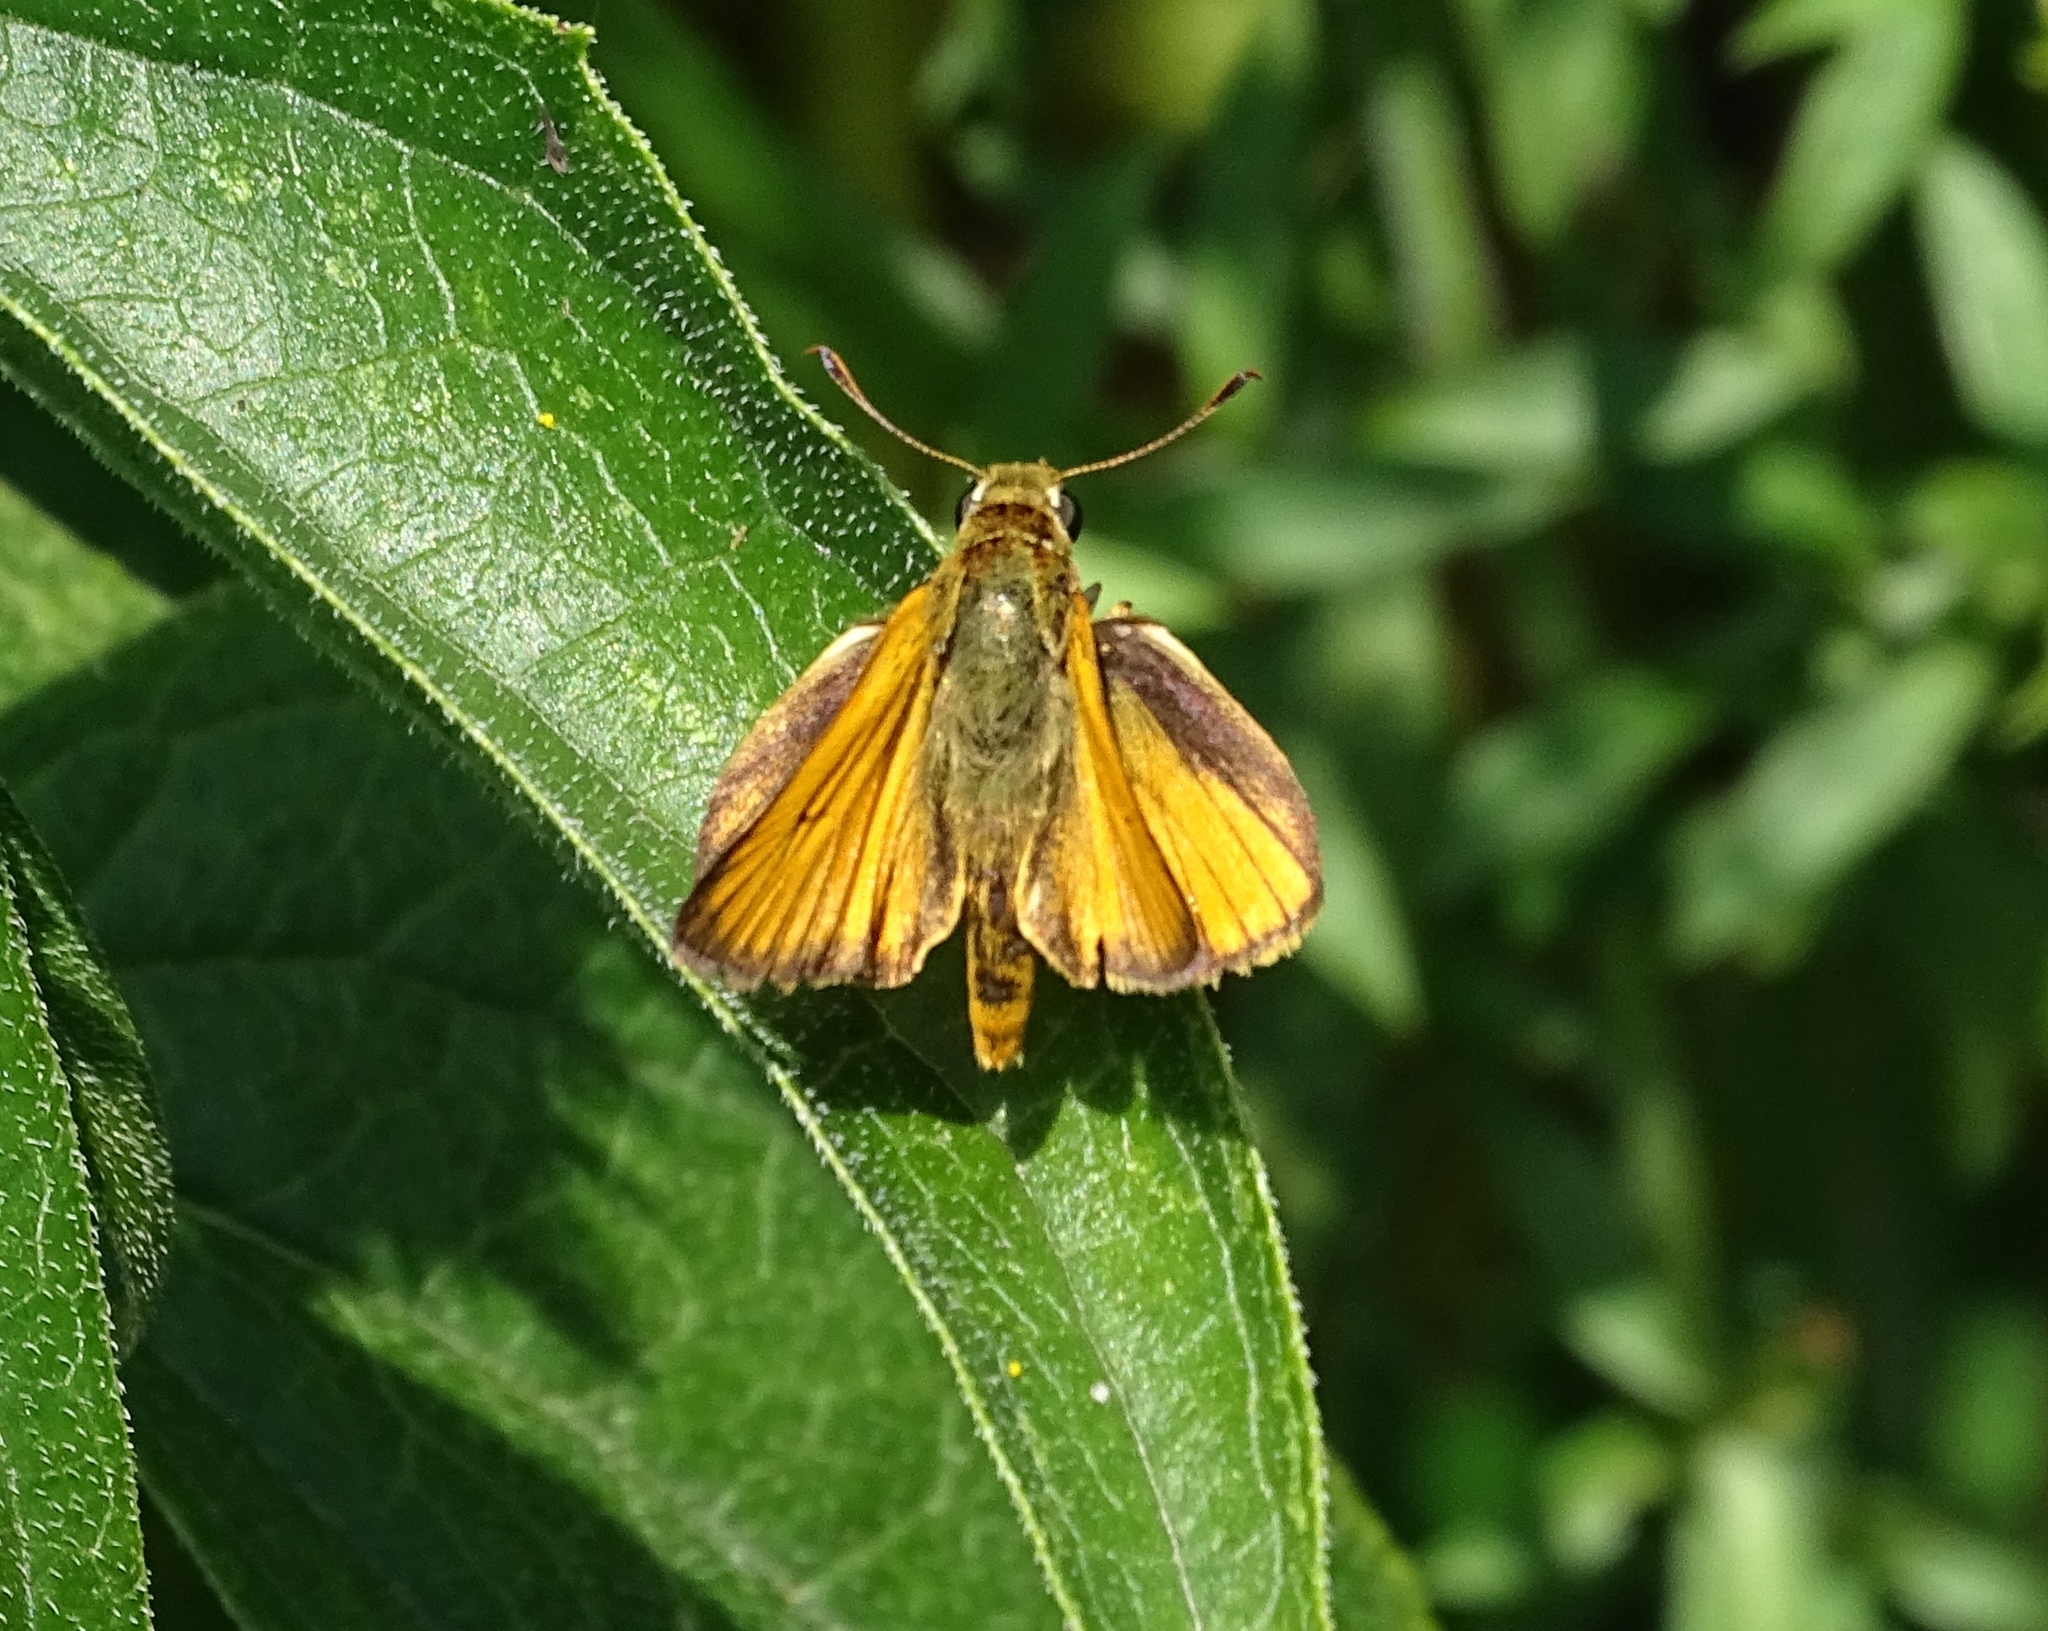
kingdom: Animalia
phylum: Arthropoda
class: Insecta
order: Lepidoptera
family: Hesperiidae
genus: Atrytone
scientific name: Atrytone delaware
